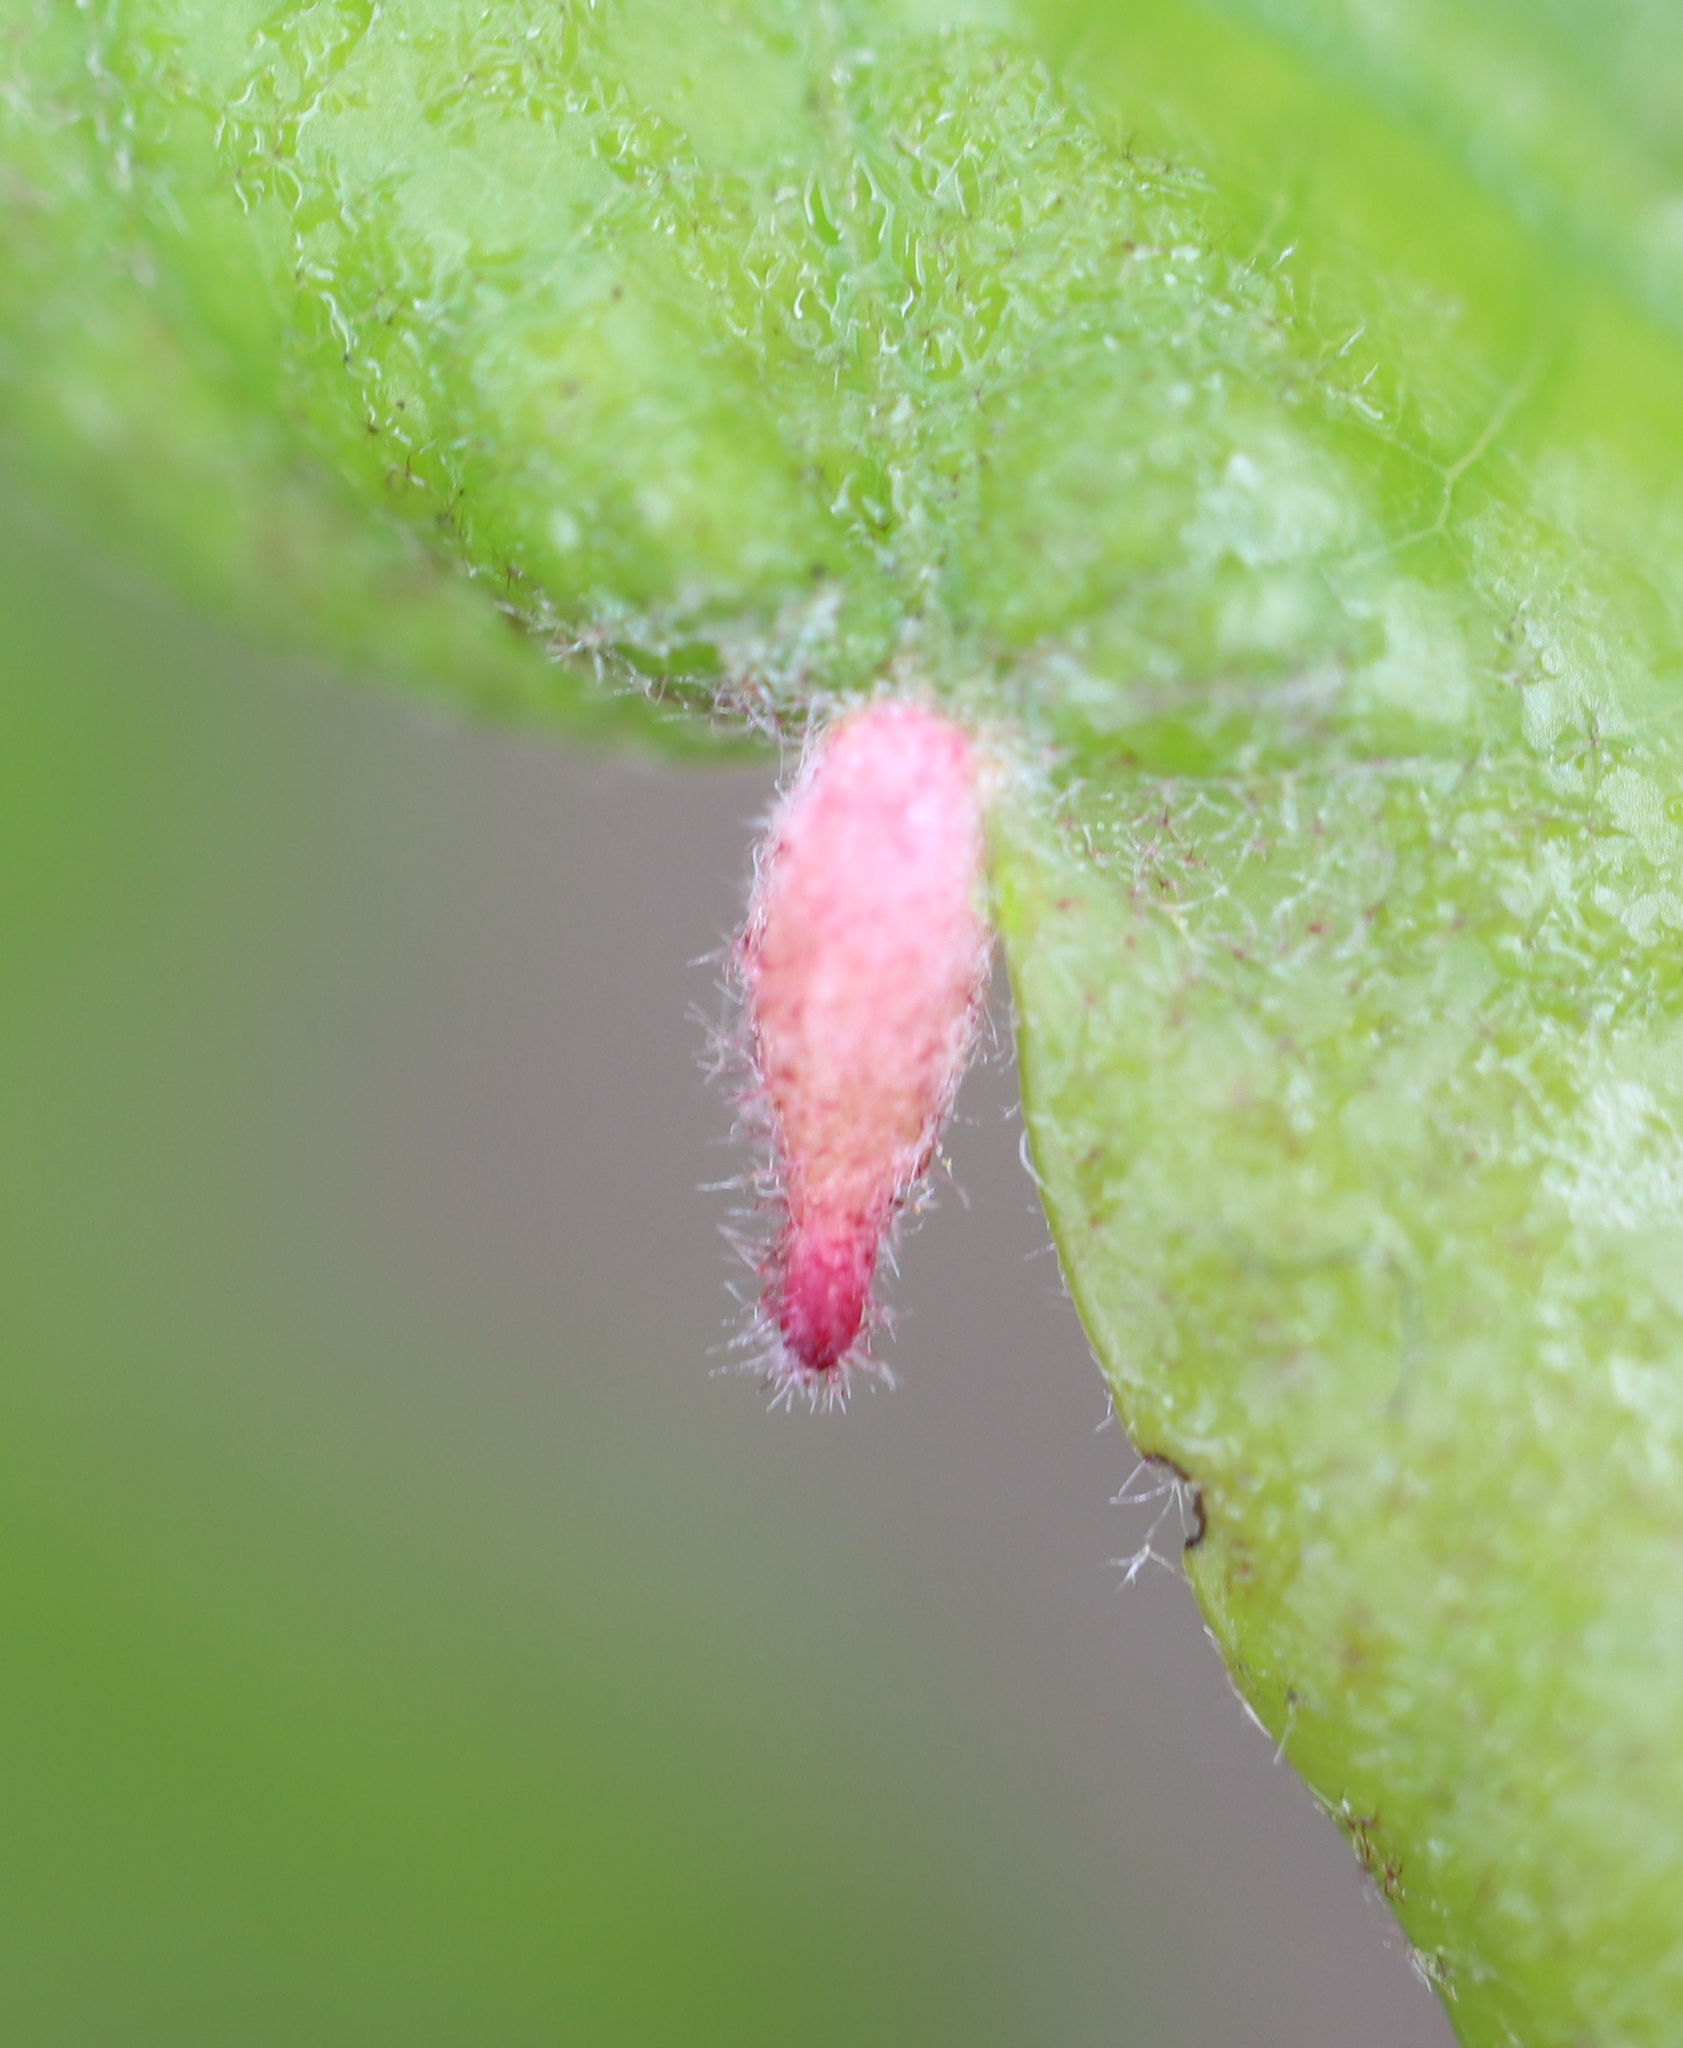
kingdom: Animalia
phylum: Arthropoda
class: Insecta
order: Hymenoptera
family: Cynipidae
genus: Andricus
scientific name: Andricus
